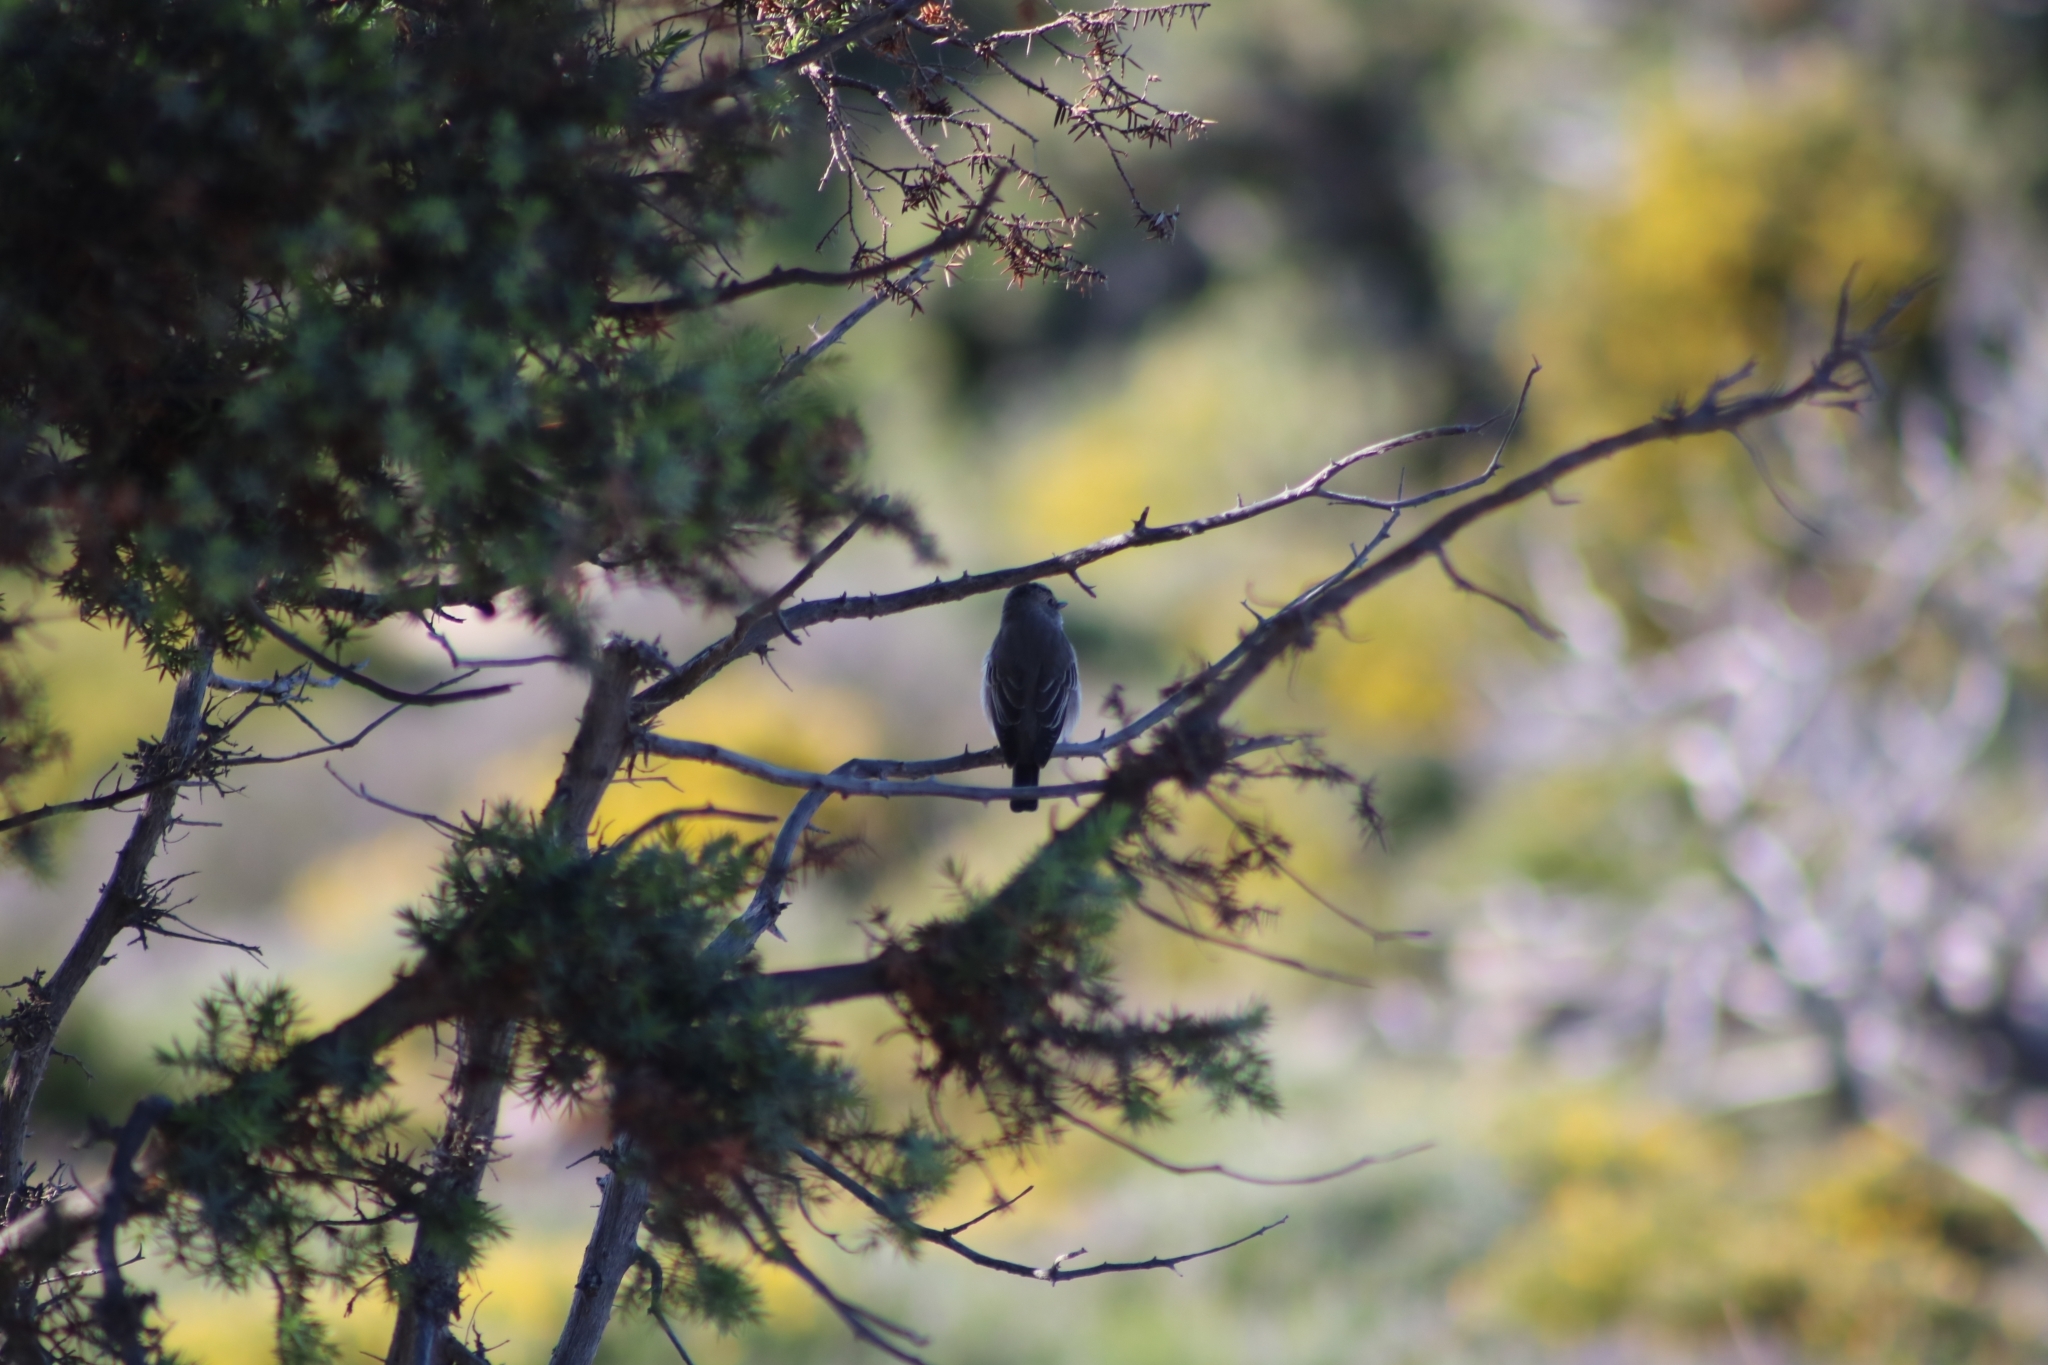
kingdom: Animalia
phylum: Chordata
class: Aves
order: Passeriformes
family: Muscicapidae
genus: Muscicapa
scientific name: Muscicapa striata
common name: Spotted flycatcher
